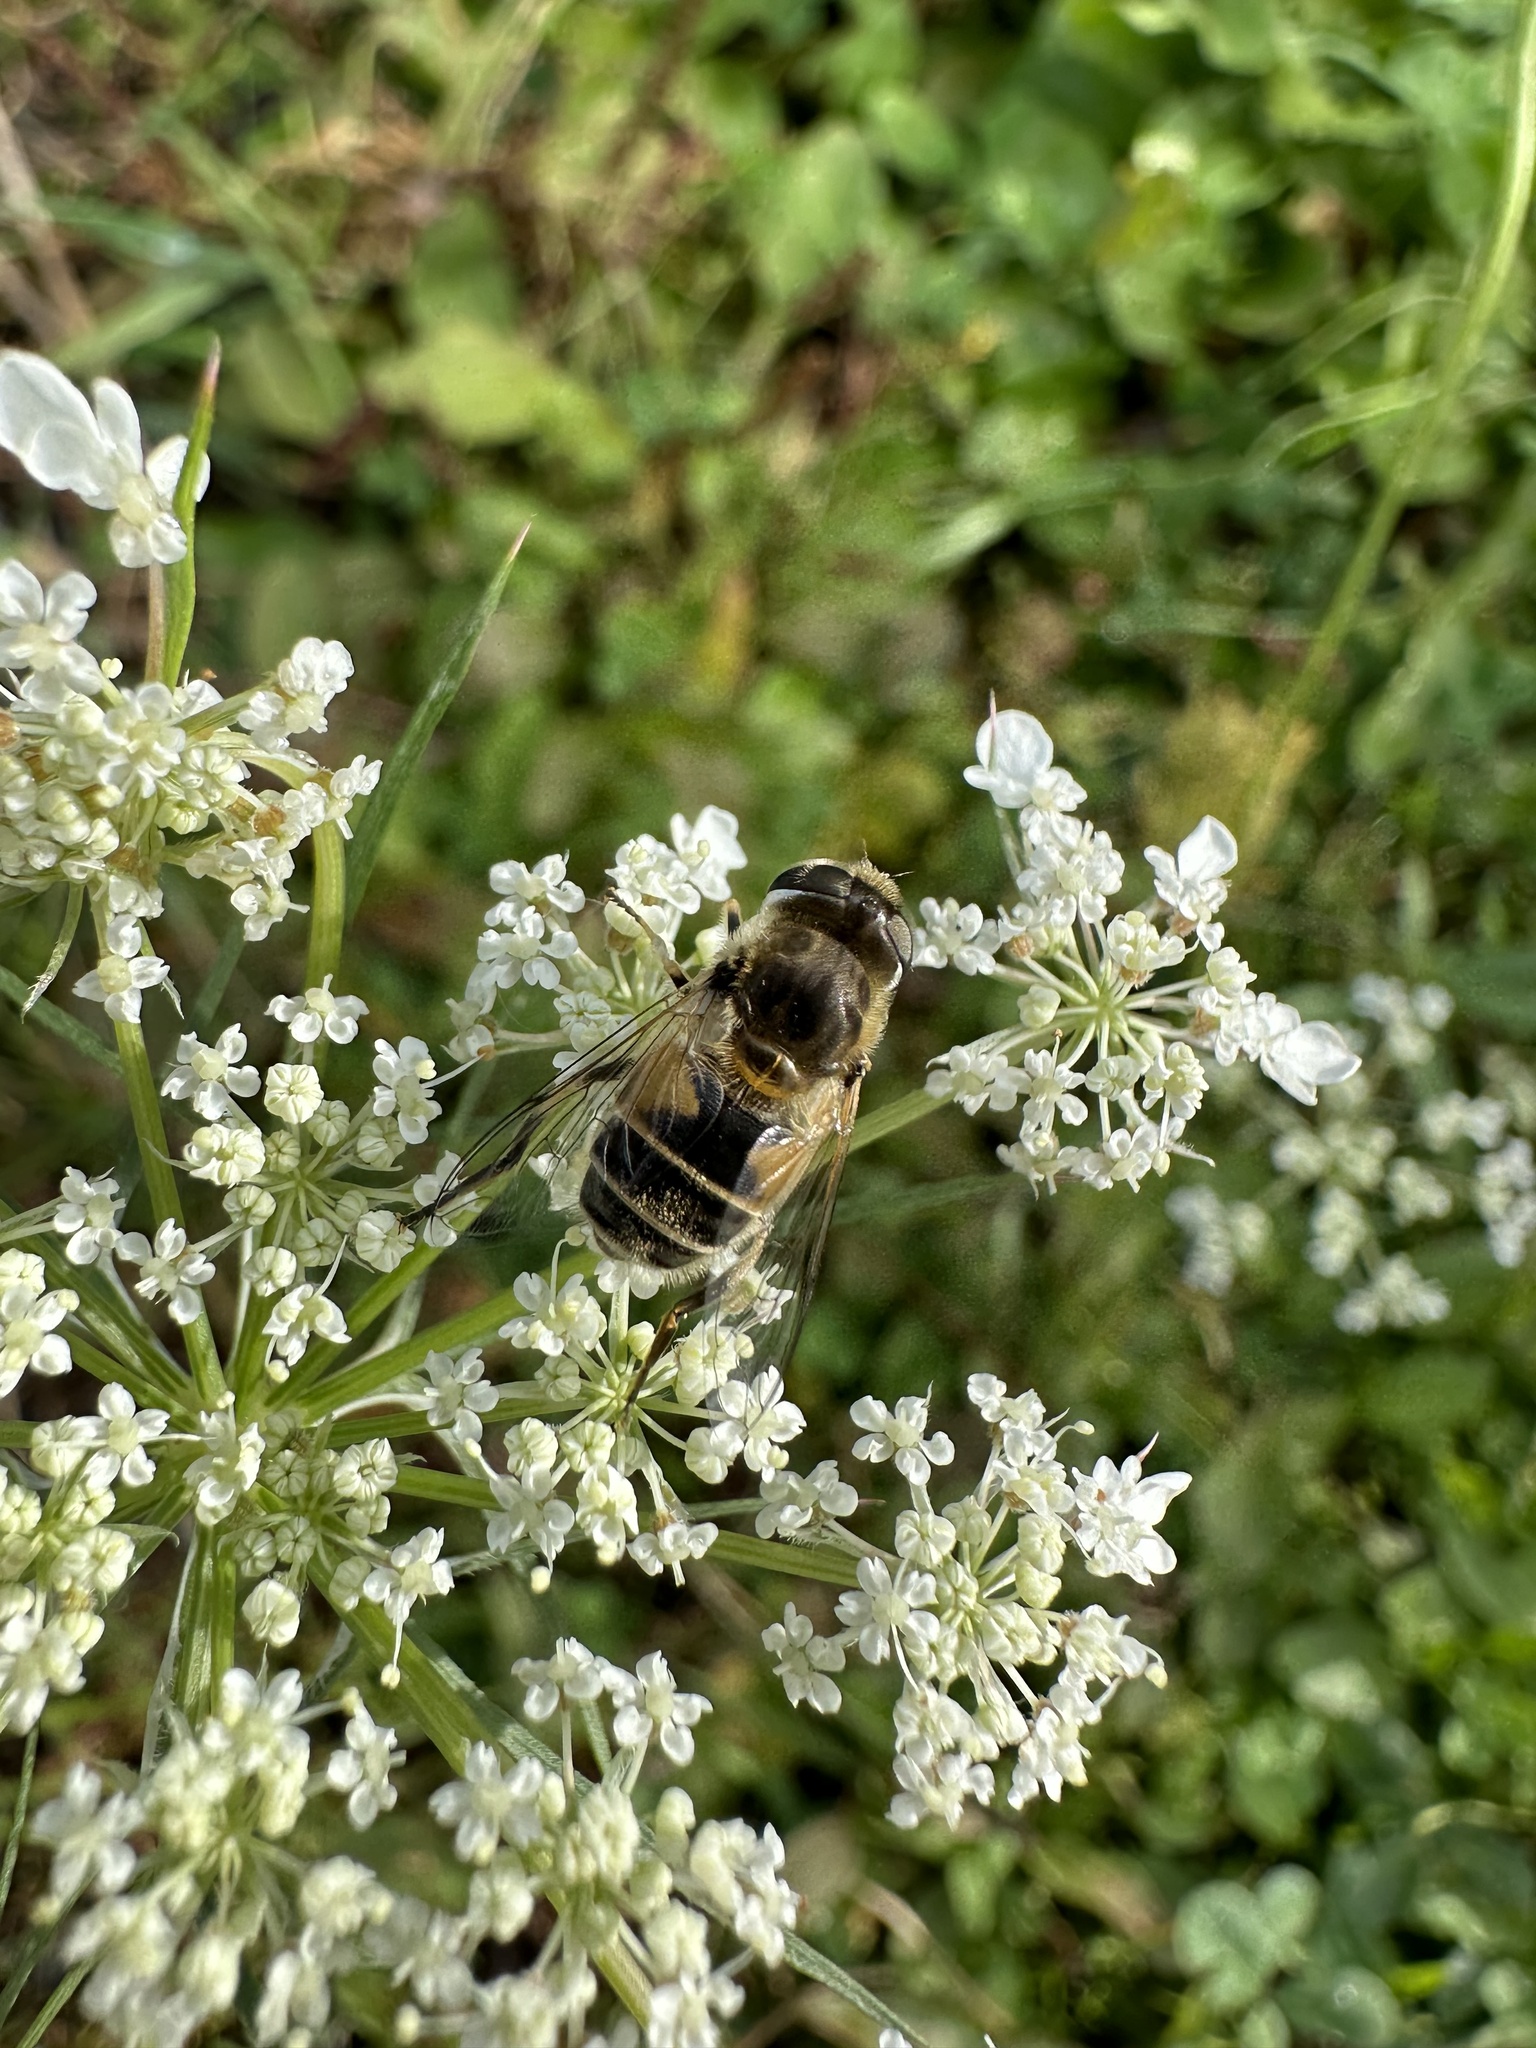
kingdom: Animalia
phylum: Arthropoda
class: Insecta
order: Diptera
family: Syrphidae
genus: Eristalis
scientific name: Eristalis arbustorum
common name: Hover fly
